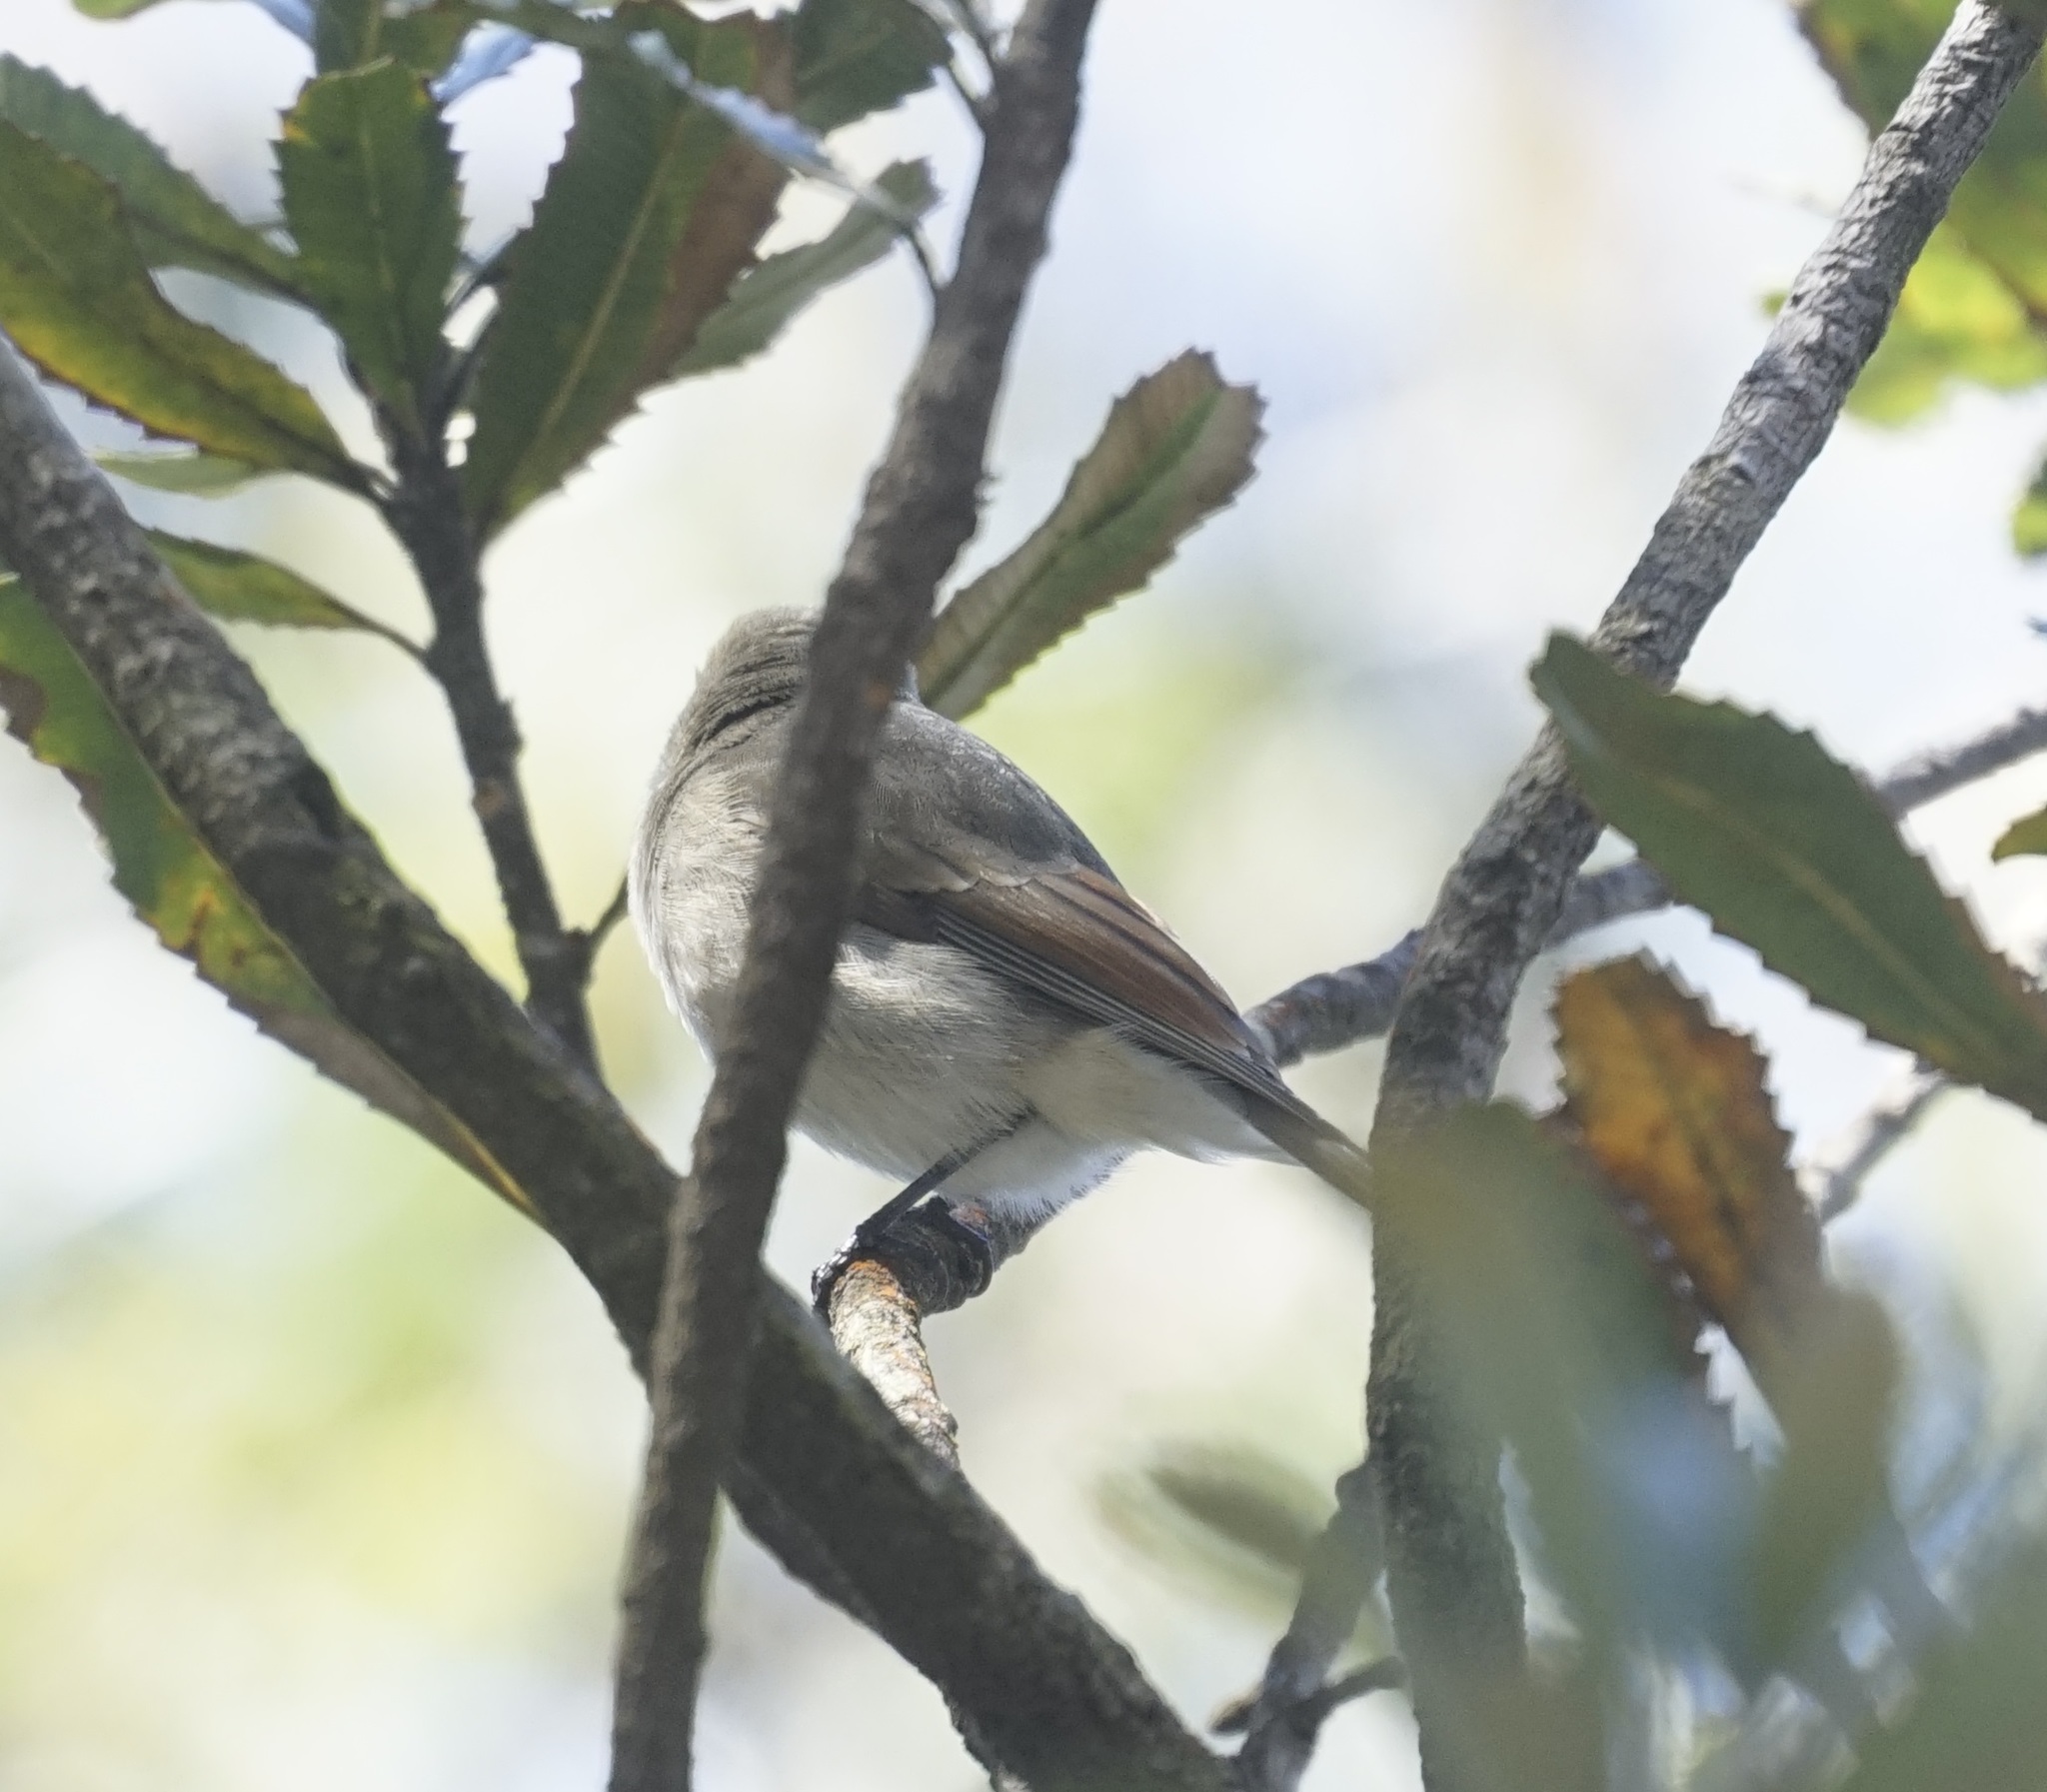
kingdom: Animalia
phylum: Chordata
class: Aves
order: Passeriformes
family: Pachycephalidae
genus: Pachycephala
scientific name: Pachycephala pectoralis
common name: Australian golden whistler
